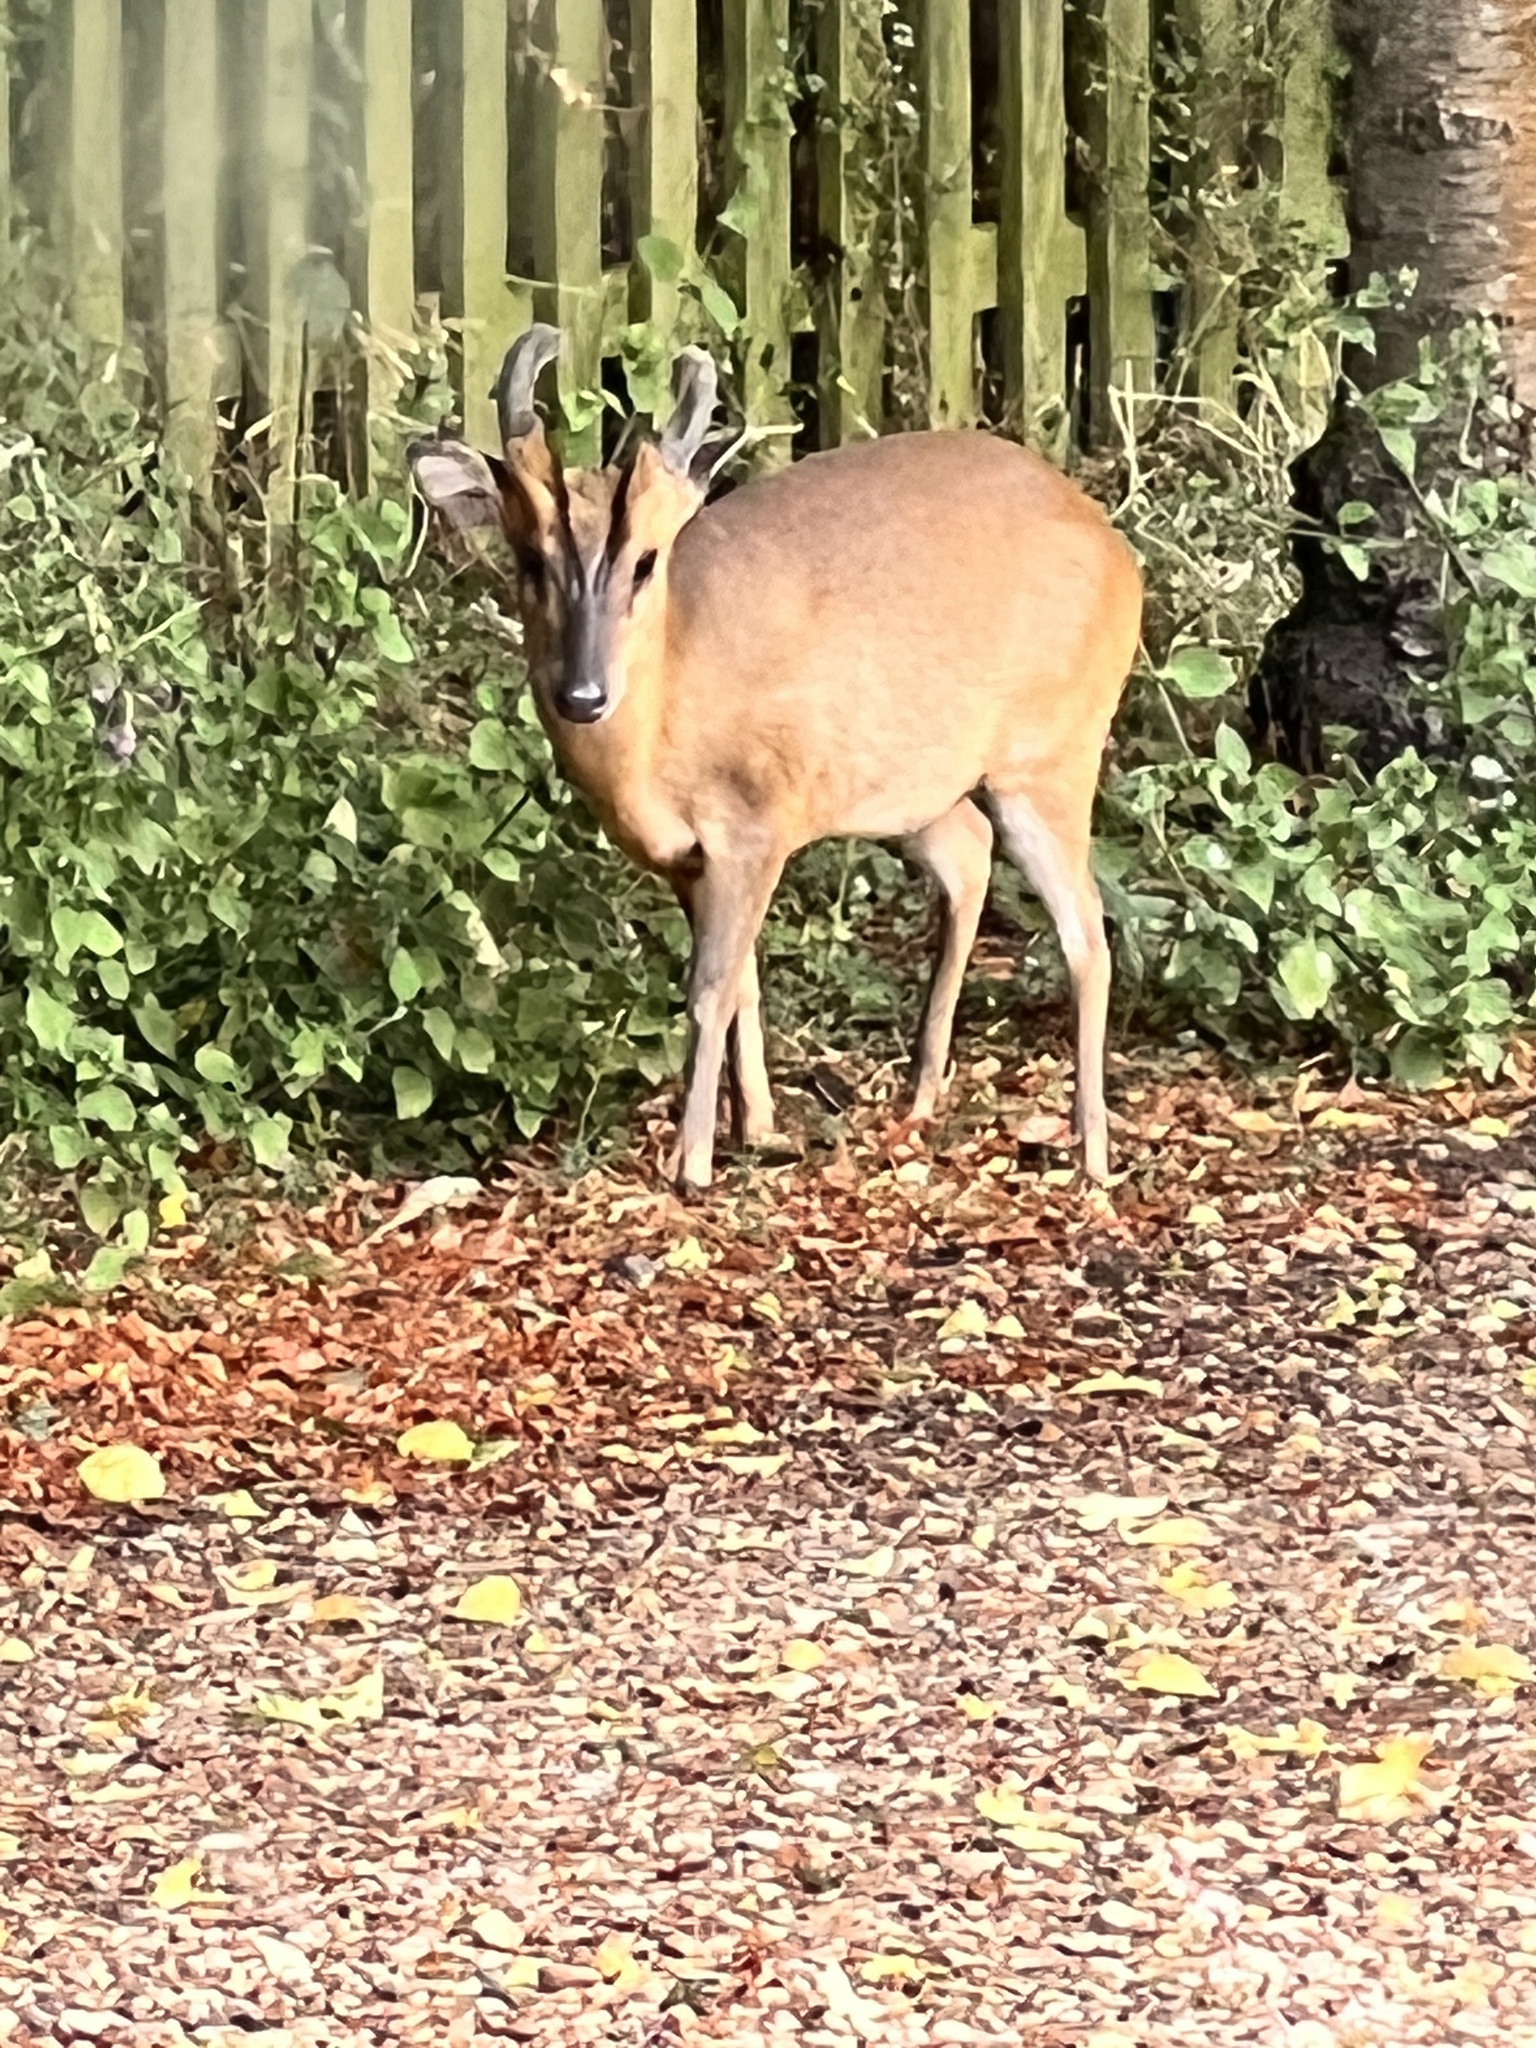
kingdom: Animalia
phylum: Chordata
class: Mammalia
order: Artiodactyla
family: Cervidae
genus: Muntiacus
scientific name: Muntiacus reevesi
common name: Reeves' muntjac
